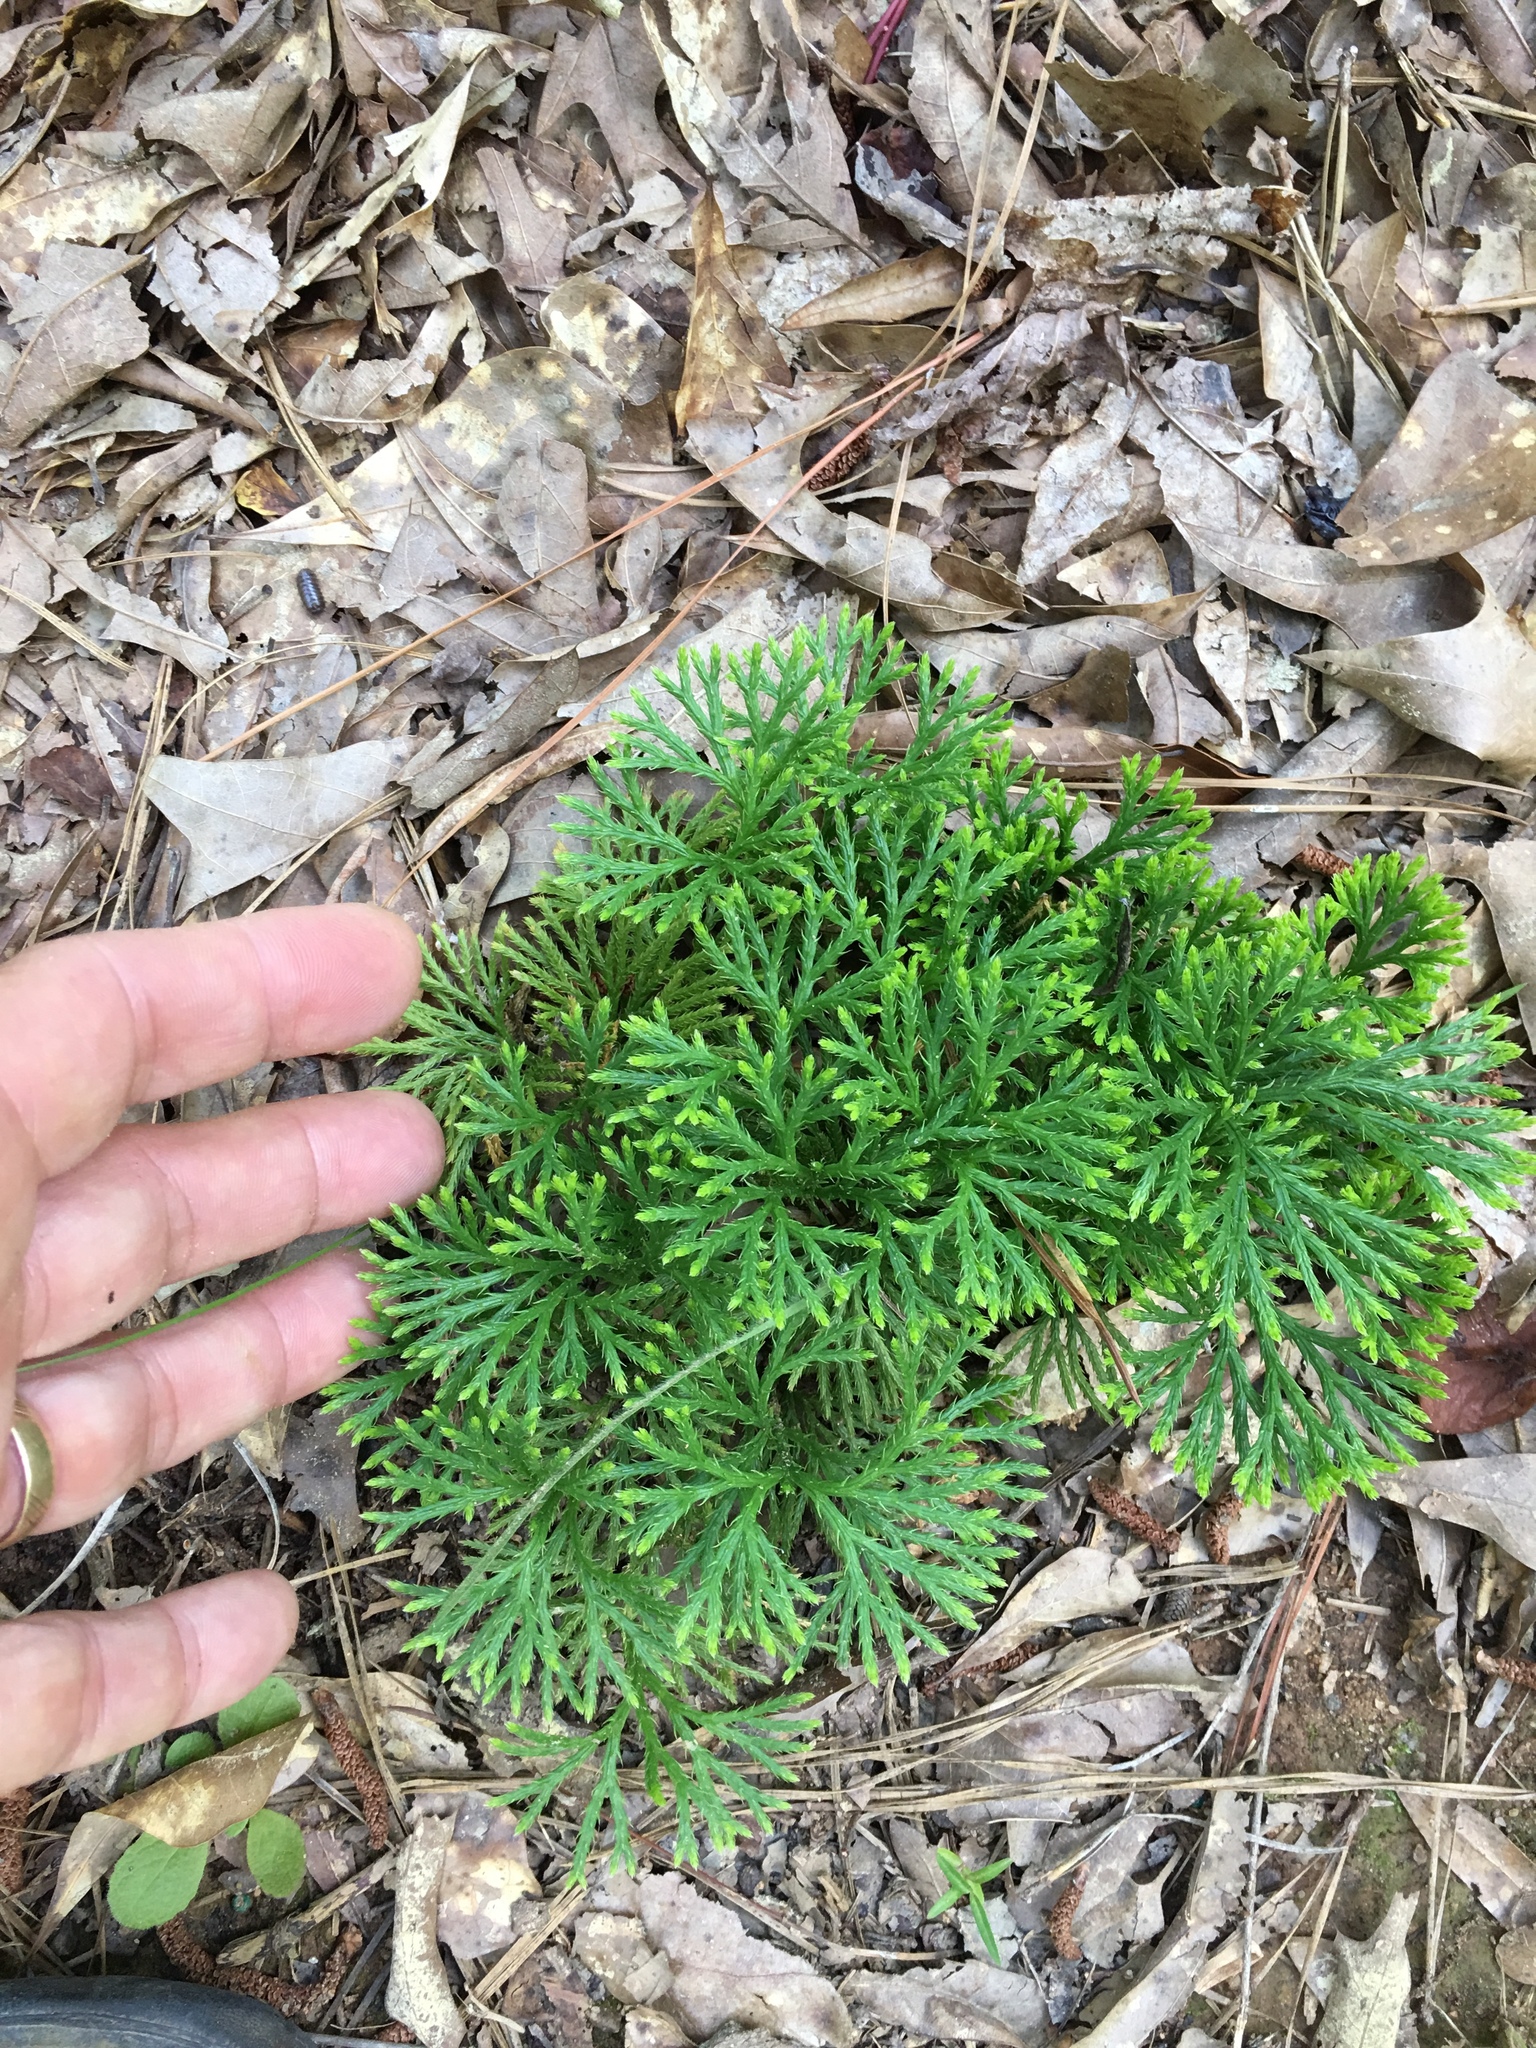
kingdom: Plantae
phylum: Tracheophyta
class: Lycopodiopsida
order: Lycopodiales
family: Lycopodiaceae
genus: Diphasiastrum
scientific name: Diphasiastrum digitatum
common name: Southern running-pine
